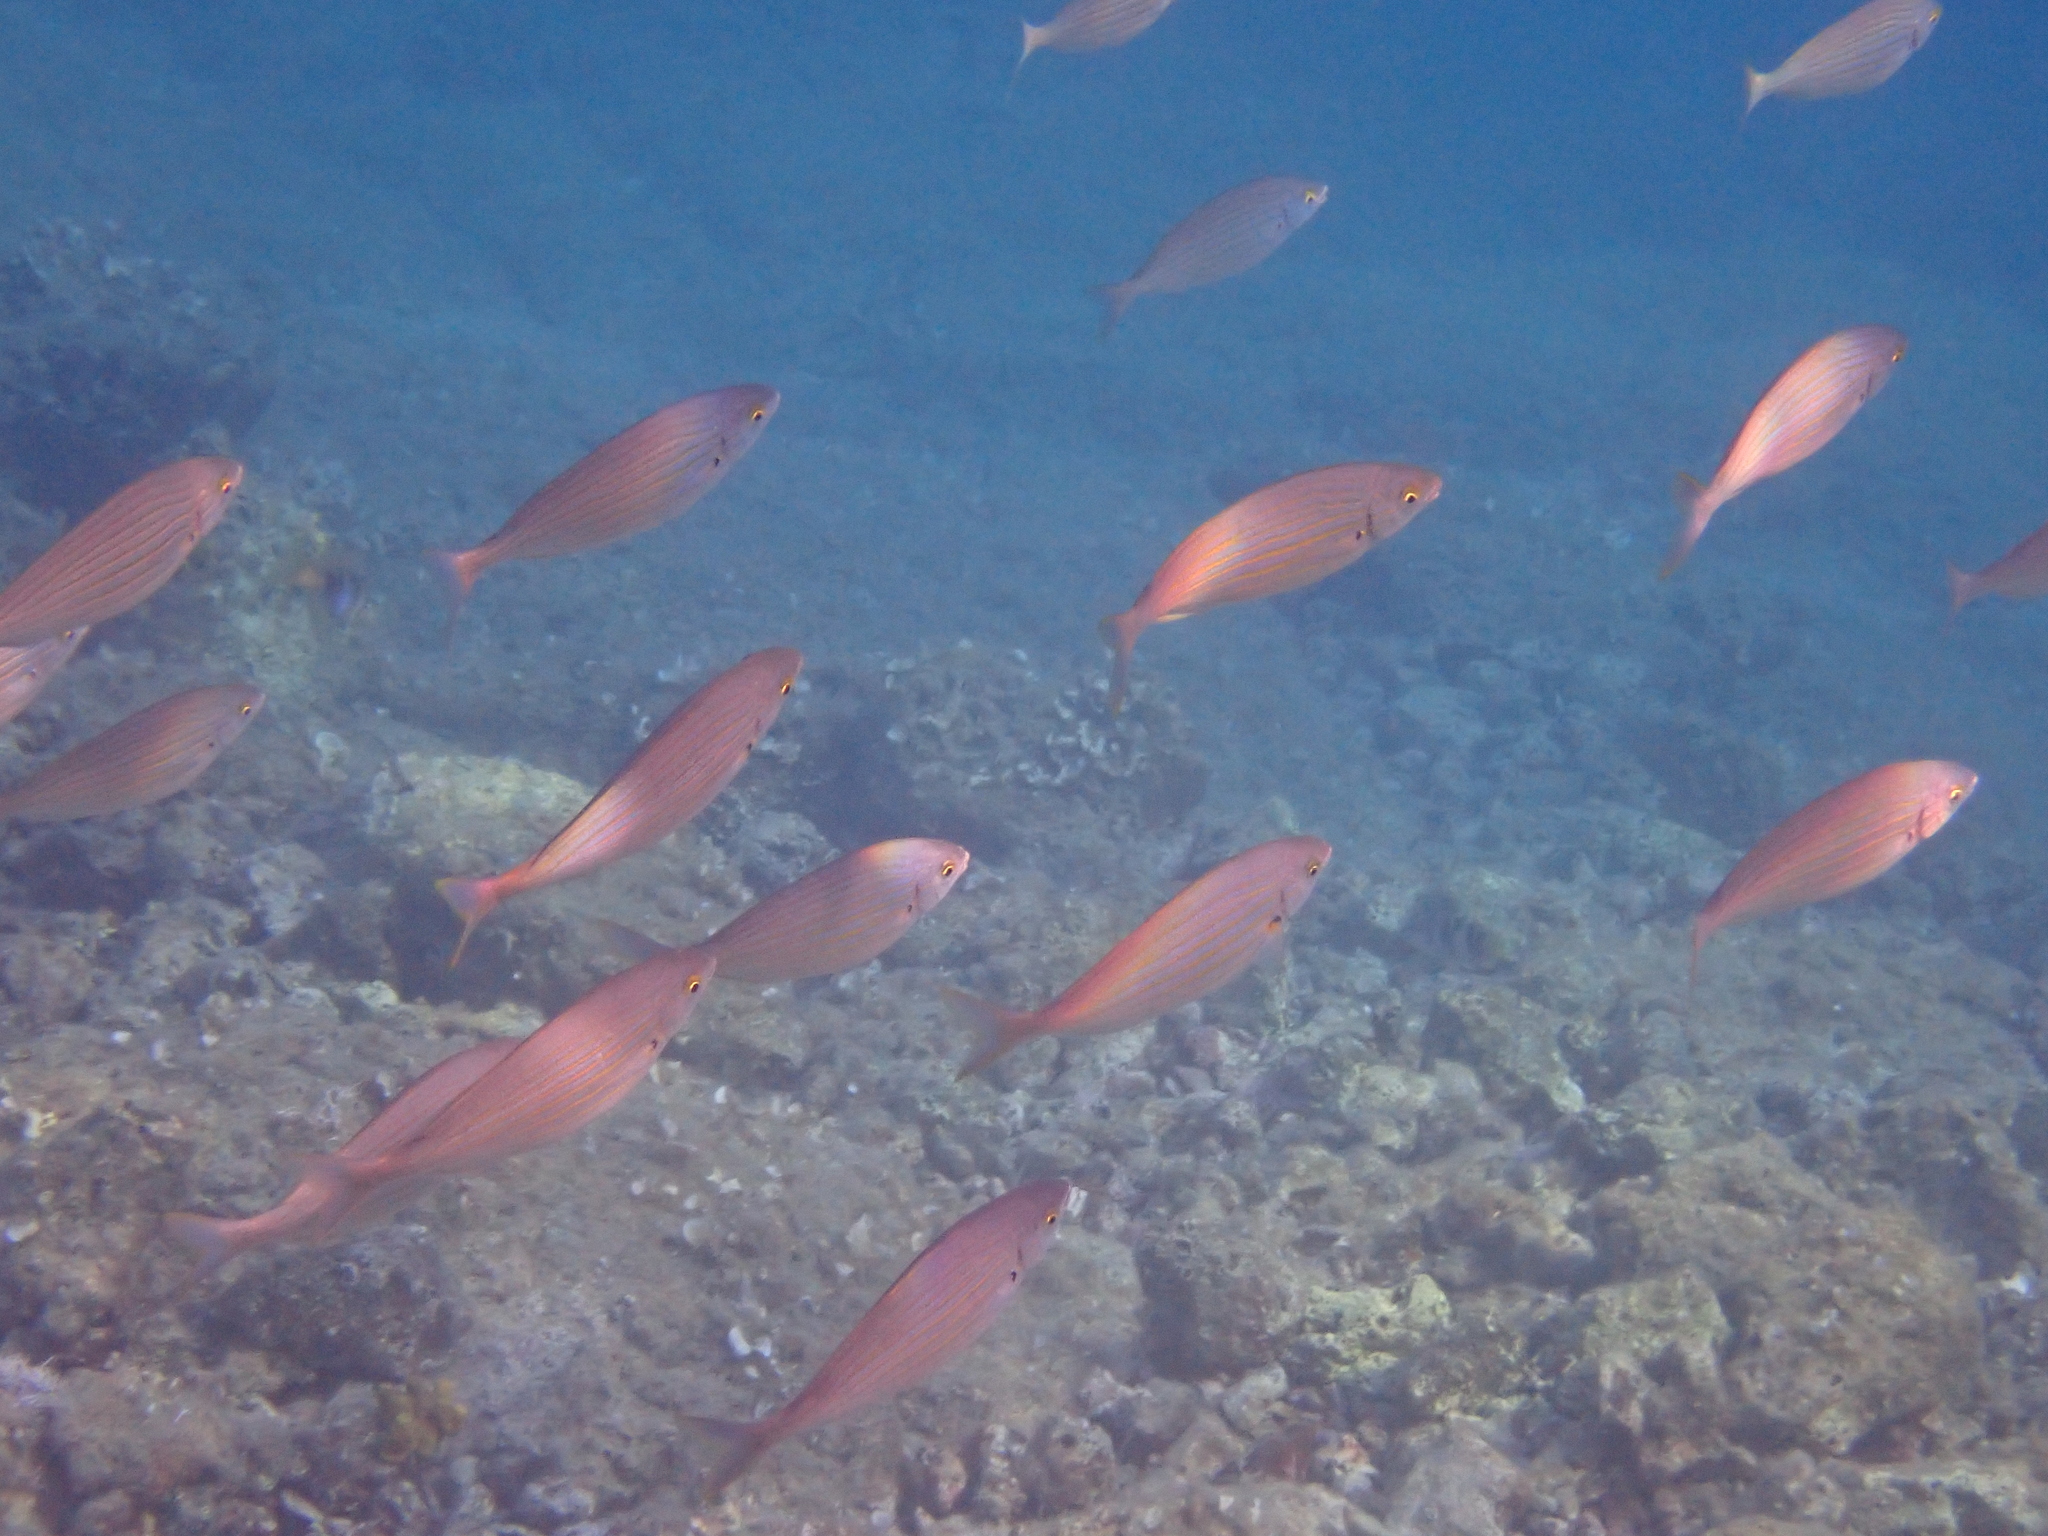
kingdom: Animalia
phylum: Chordata
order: Perciformes
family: Sparidae
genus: Sarpa
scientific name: Sarpa salpa
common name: Salema
